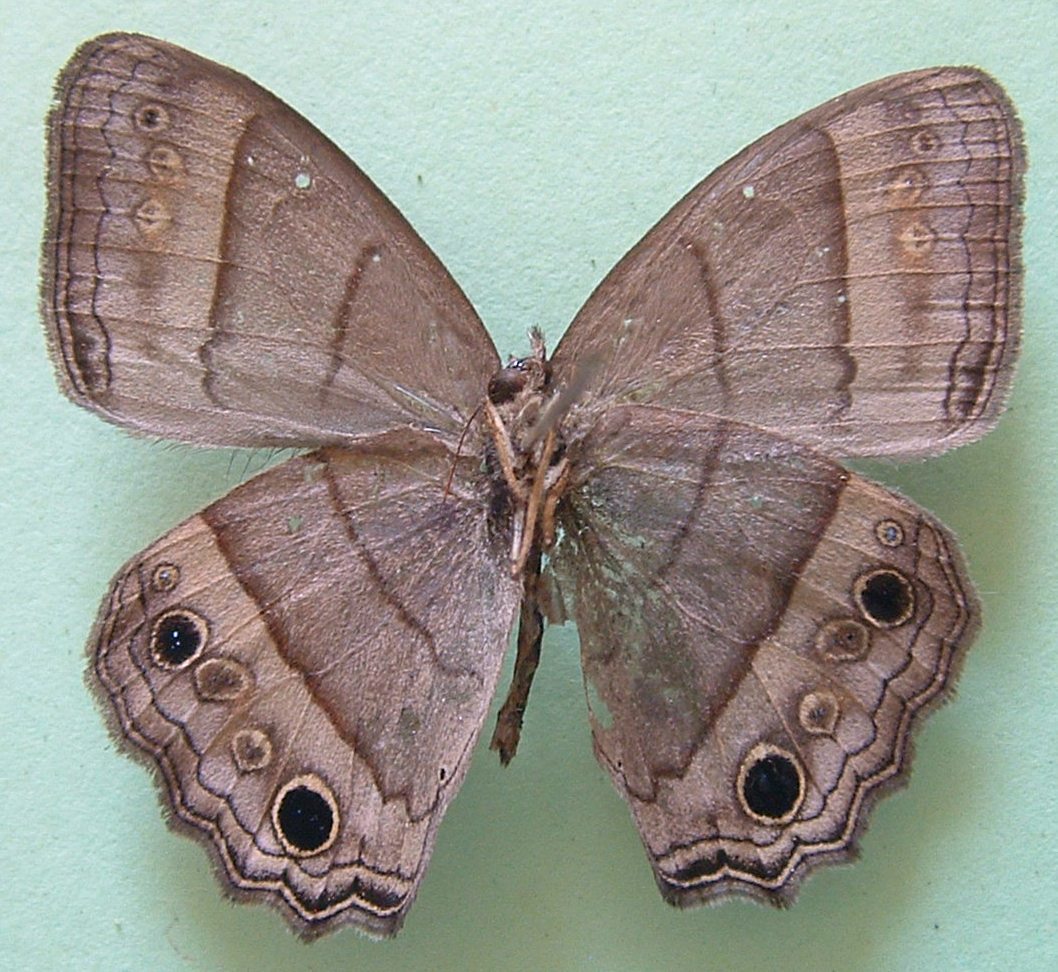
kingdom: Animalia
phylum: Arthropoda
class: Insecta
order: Lepidoptera
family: Nymphalidae
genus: Vareuptychia
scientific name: Vareuptychia similis
